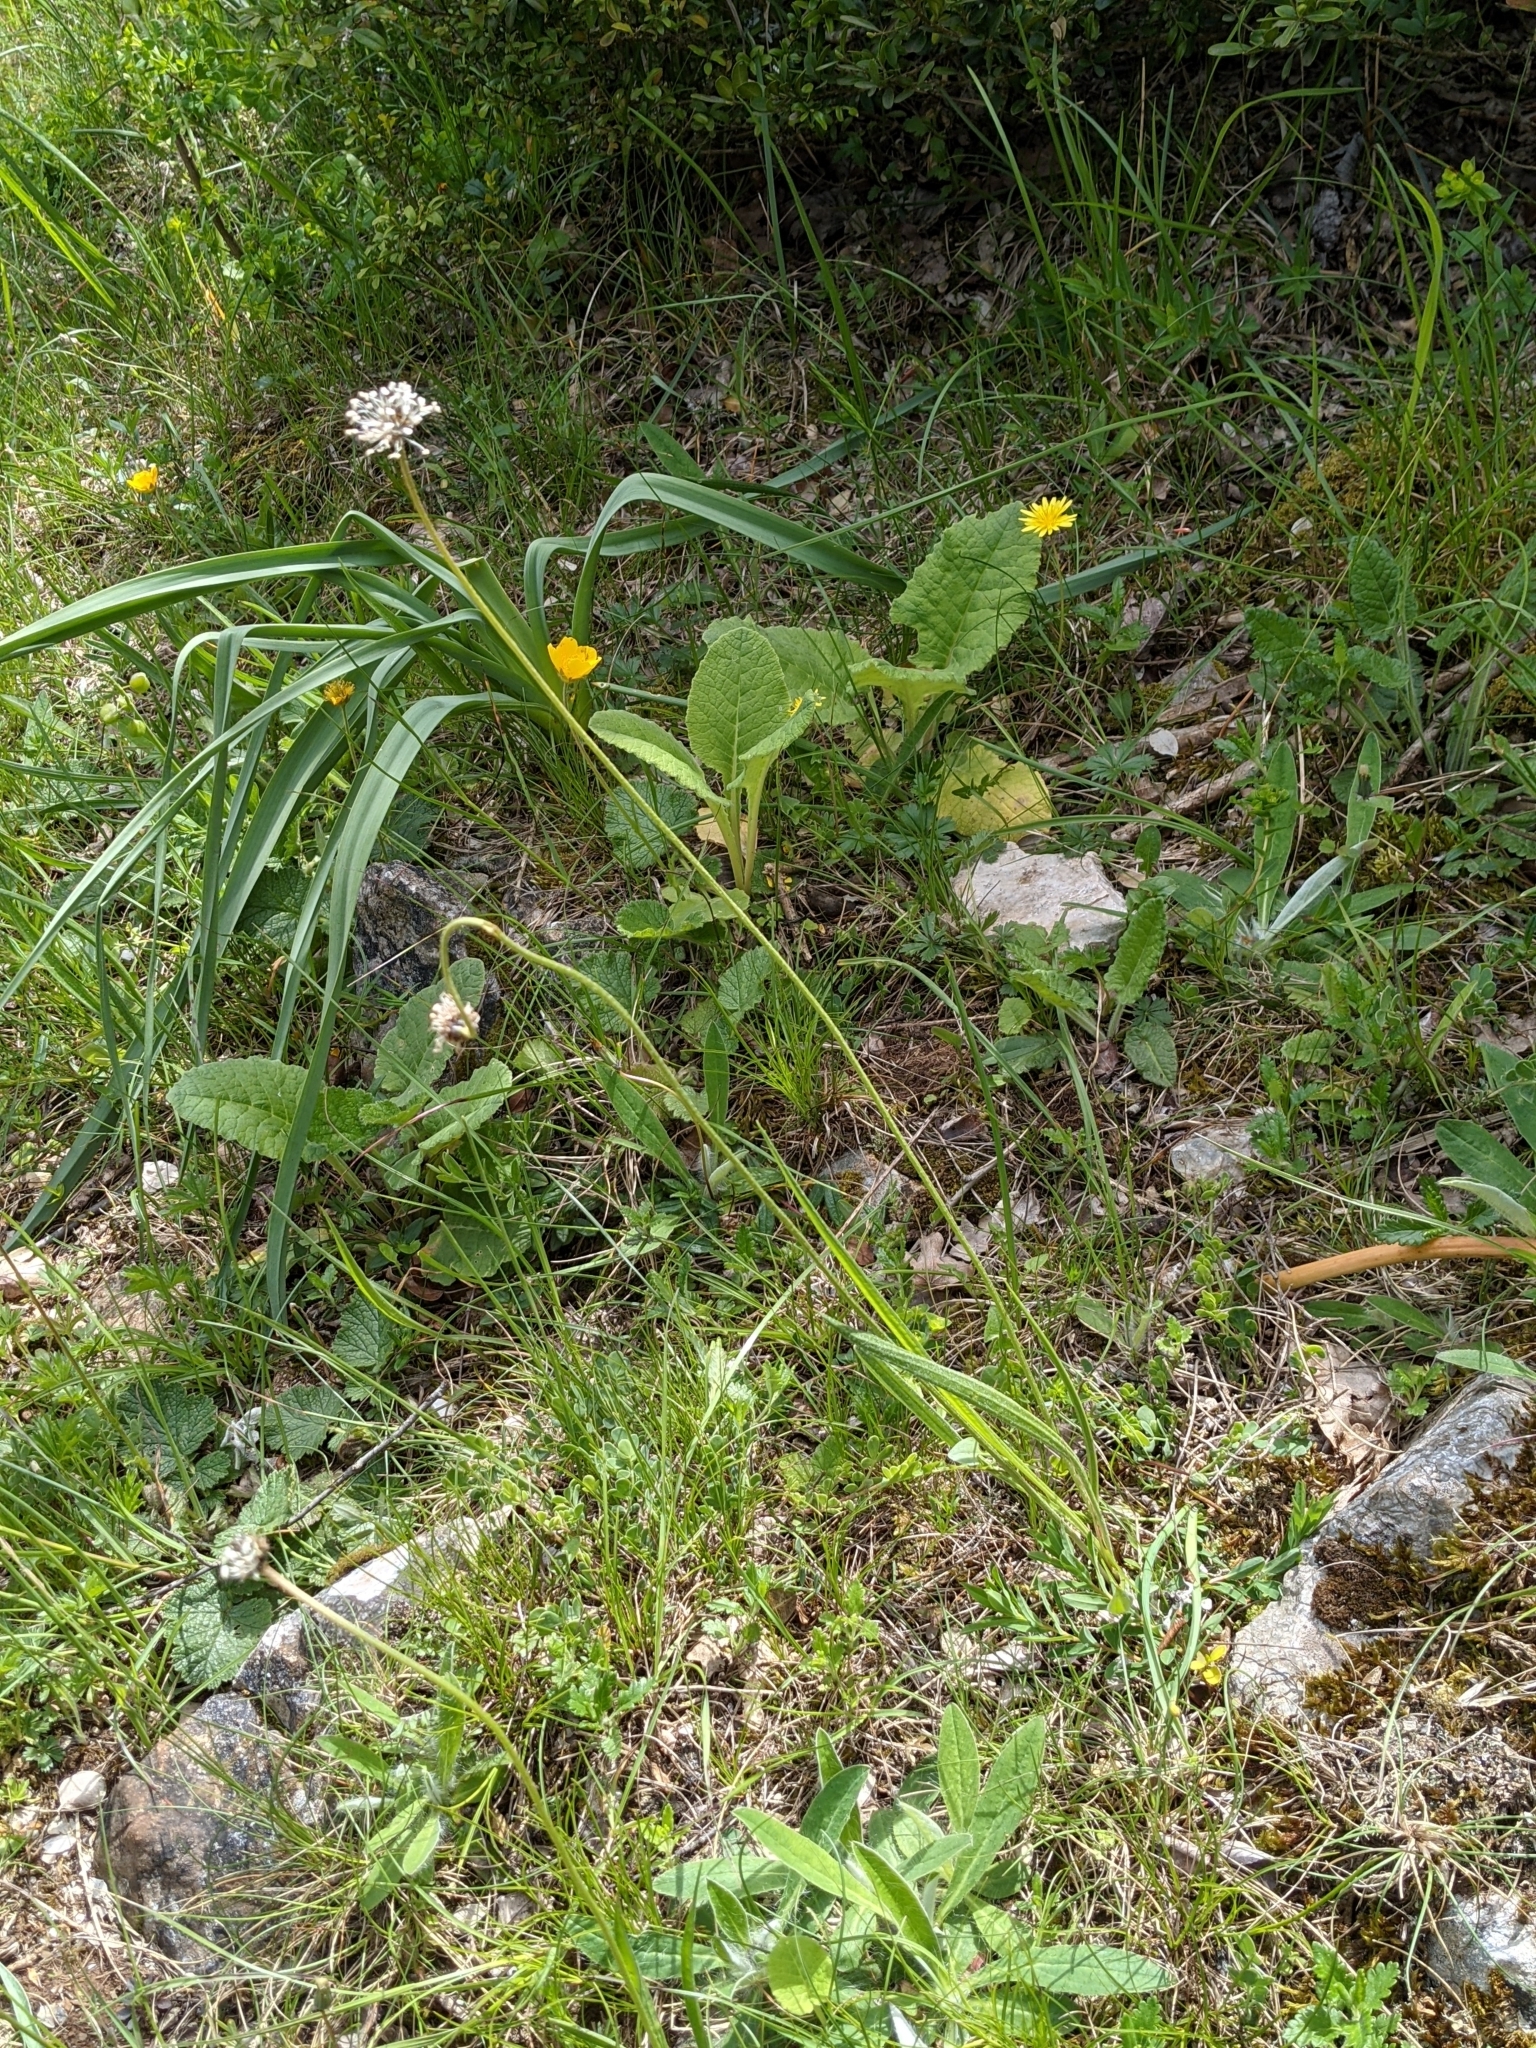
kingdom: Plantae
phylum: Tracheophyta
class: Magnoliopsida
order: Lamiales
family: Plantaginaceae
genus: Plantago
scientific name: Plantago argentea
